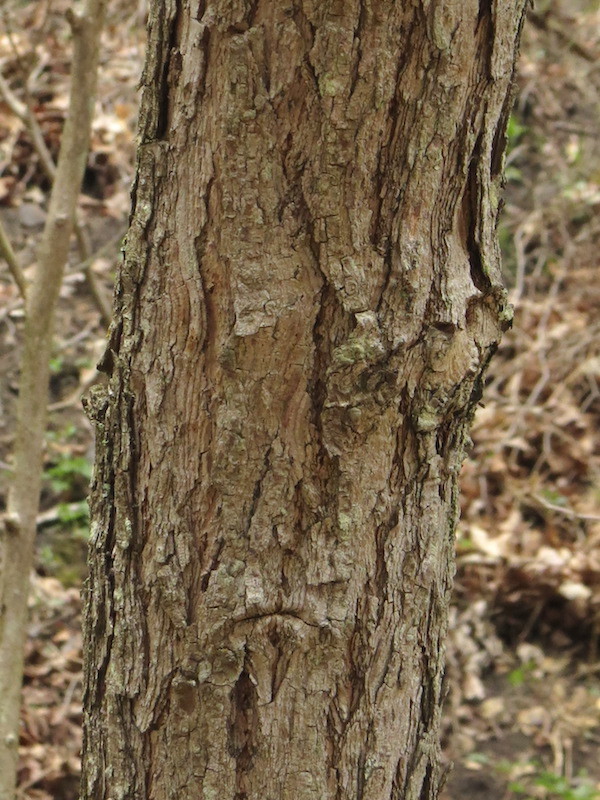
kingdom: Plantae
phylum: Tracheophyta
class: Magnoliopsida
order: Laurales
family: Lauraceae
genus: Sassafras
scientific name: Sassafras albidum
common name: Sassafras
